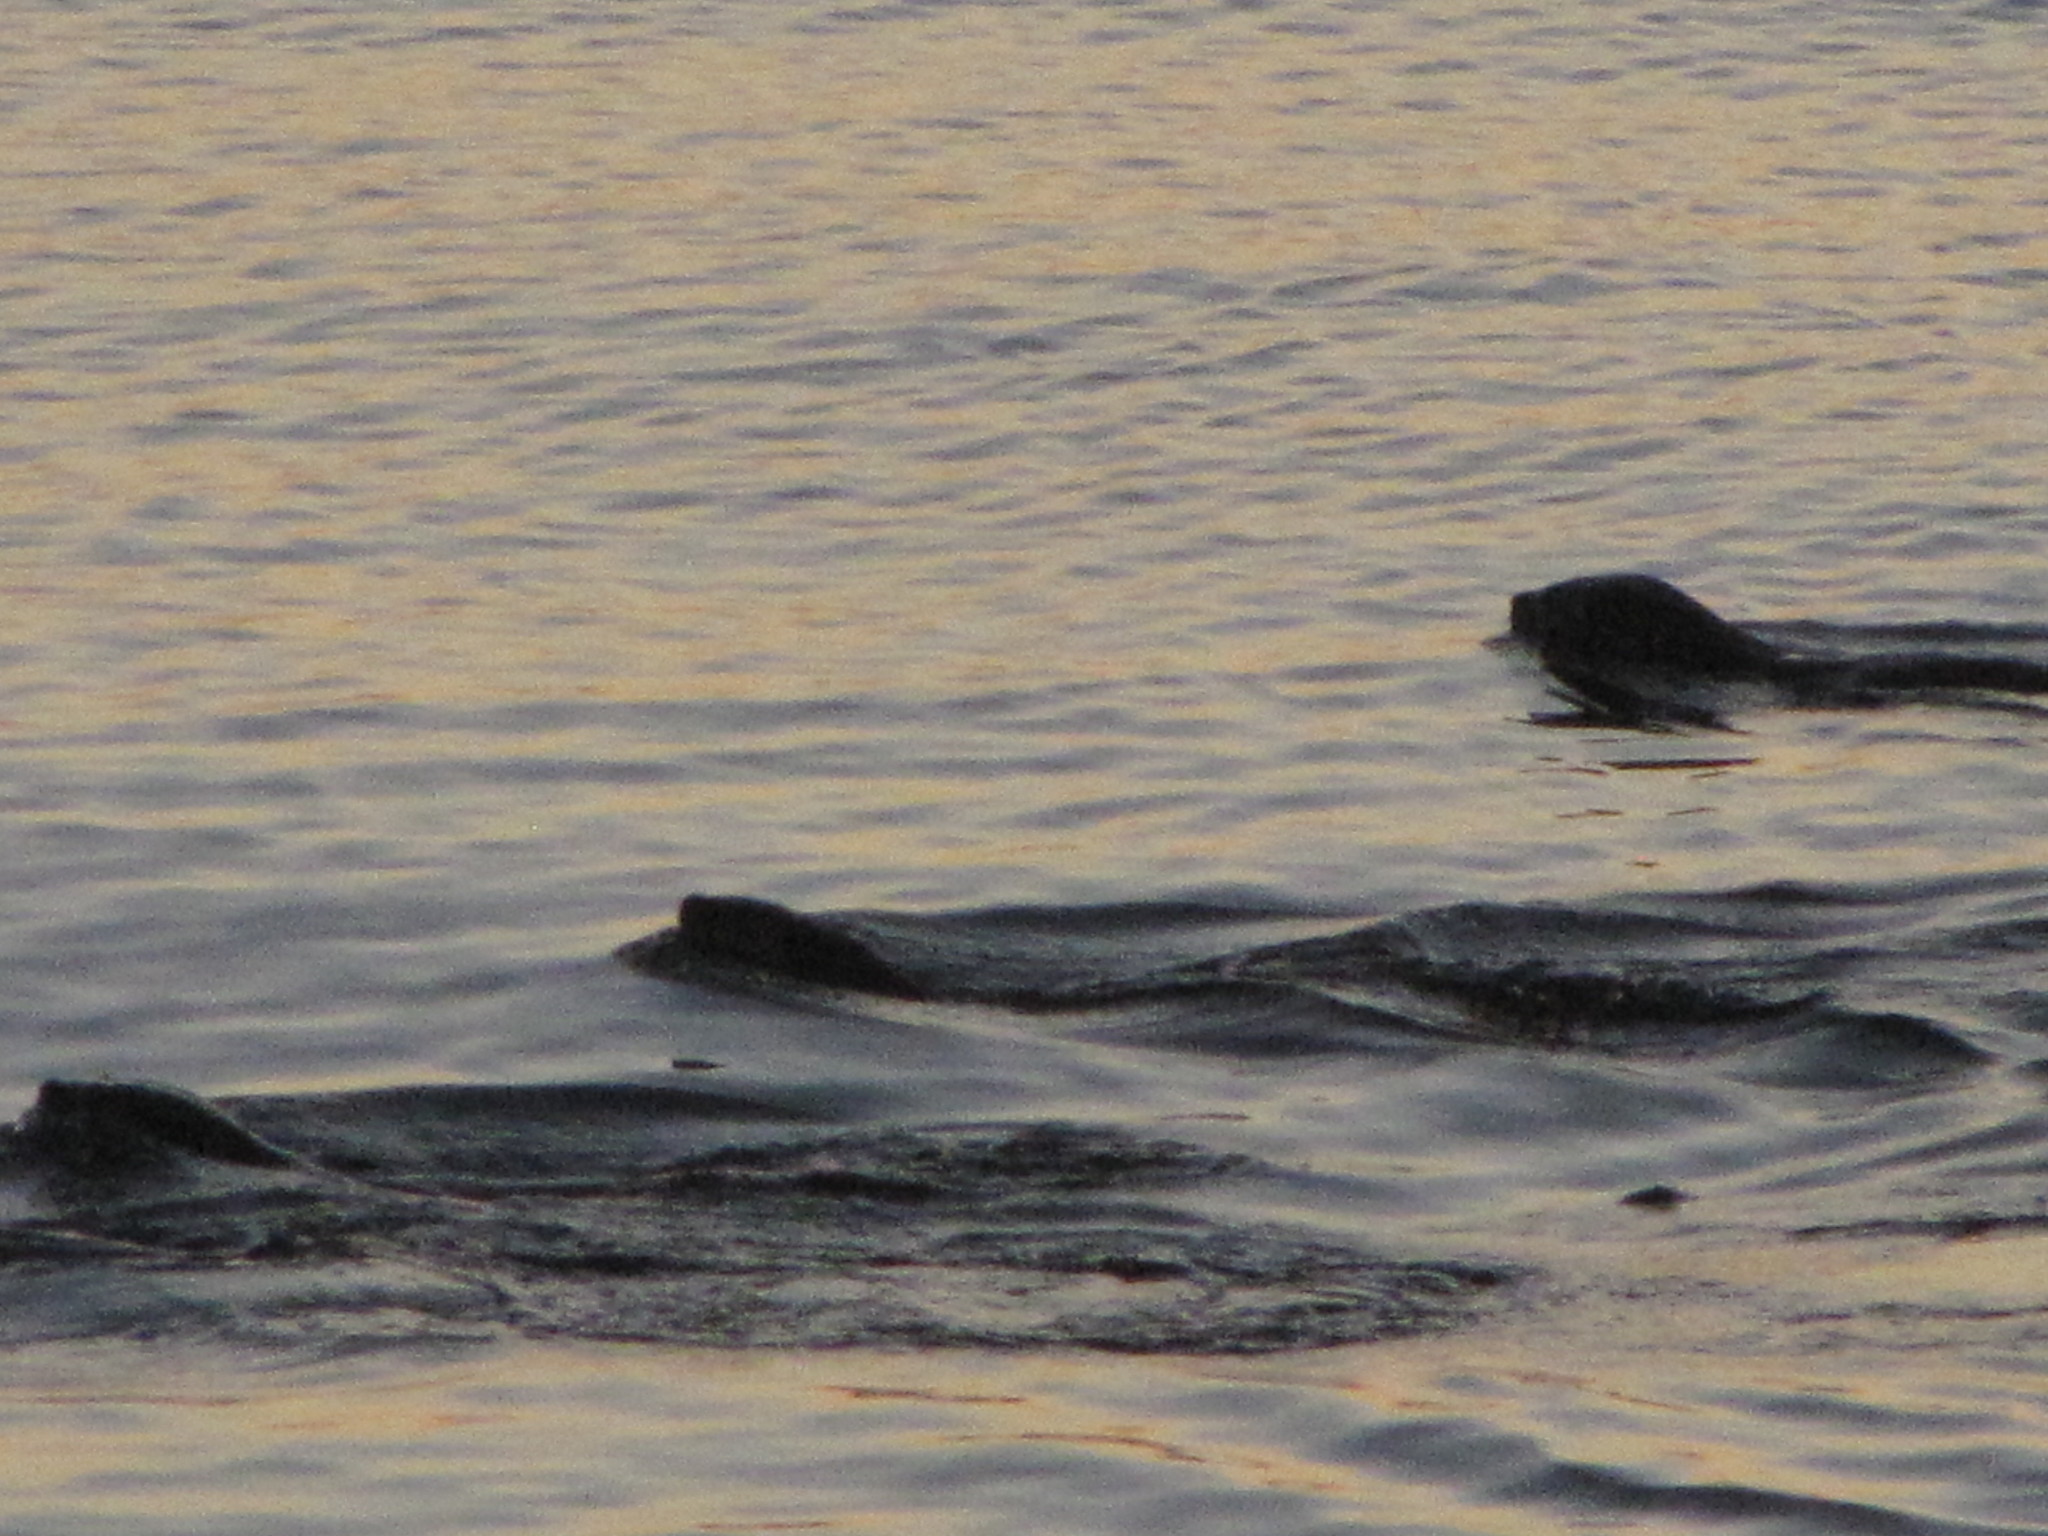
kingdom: Animalia
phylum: Chordata
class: Mammalia
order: Carnivora
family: Mustelidae
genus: Lontra
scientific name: Lontra canadensis
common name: North american river otter
